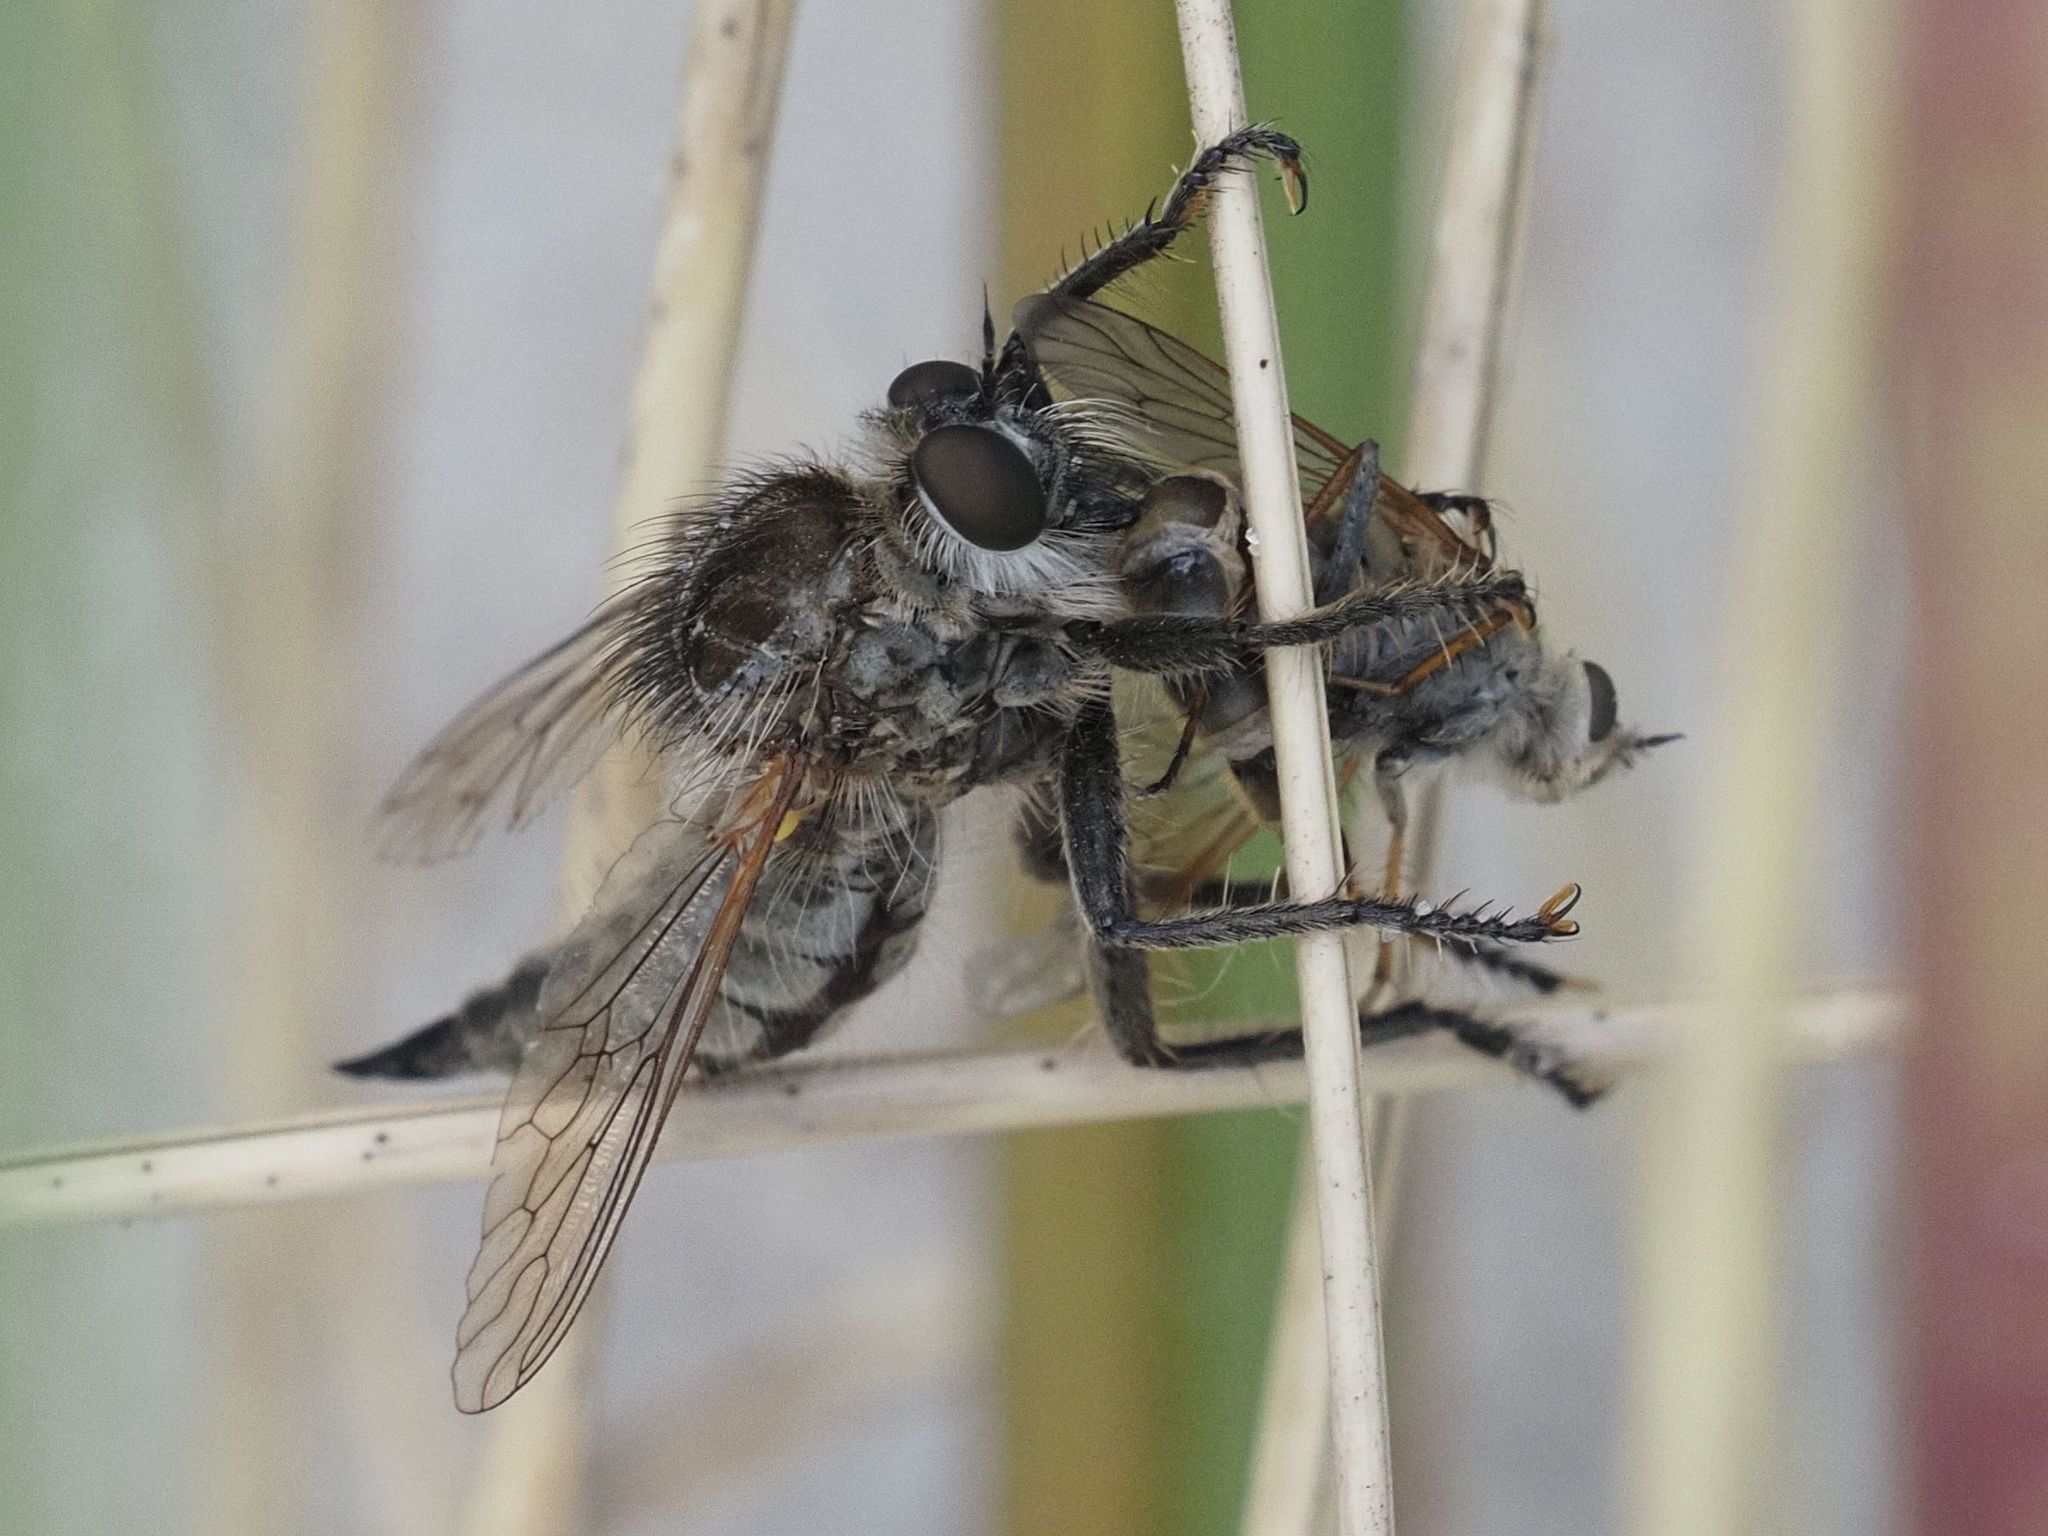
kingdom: Animalia
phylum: Arthropoda
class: Insecta
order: Diptera
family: Asilidae
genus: Dysmachus
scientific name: Dysmachus trigonus
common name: Fan-bristled robberfly
